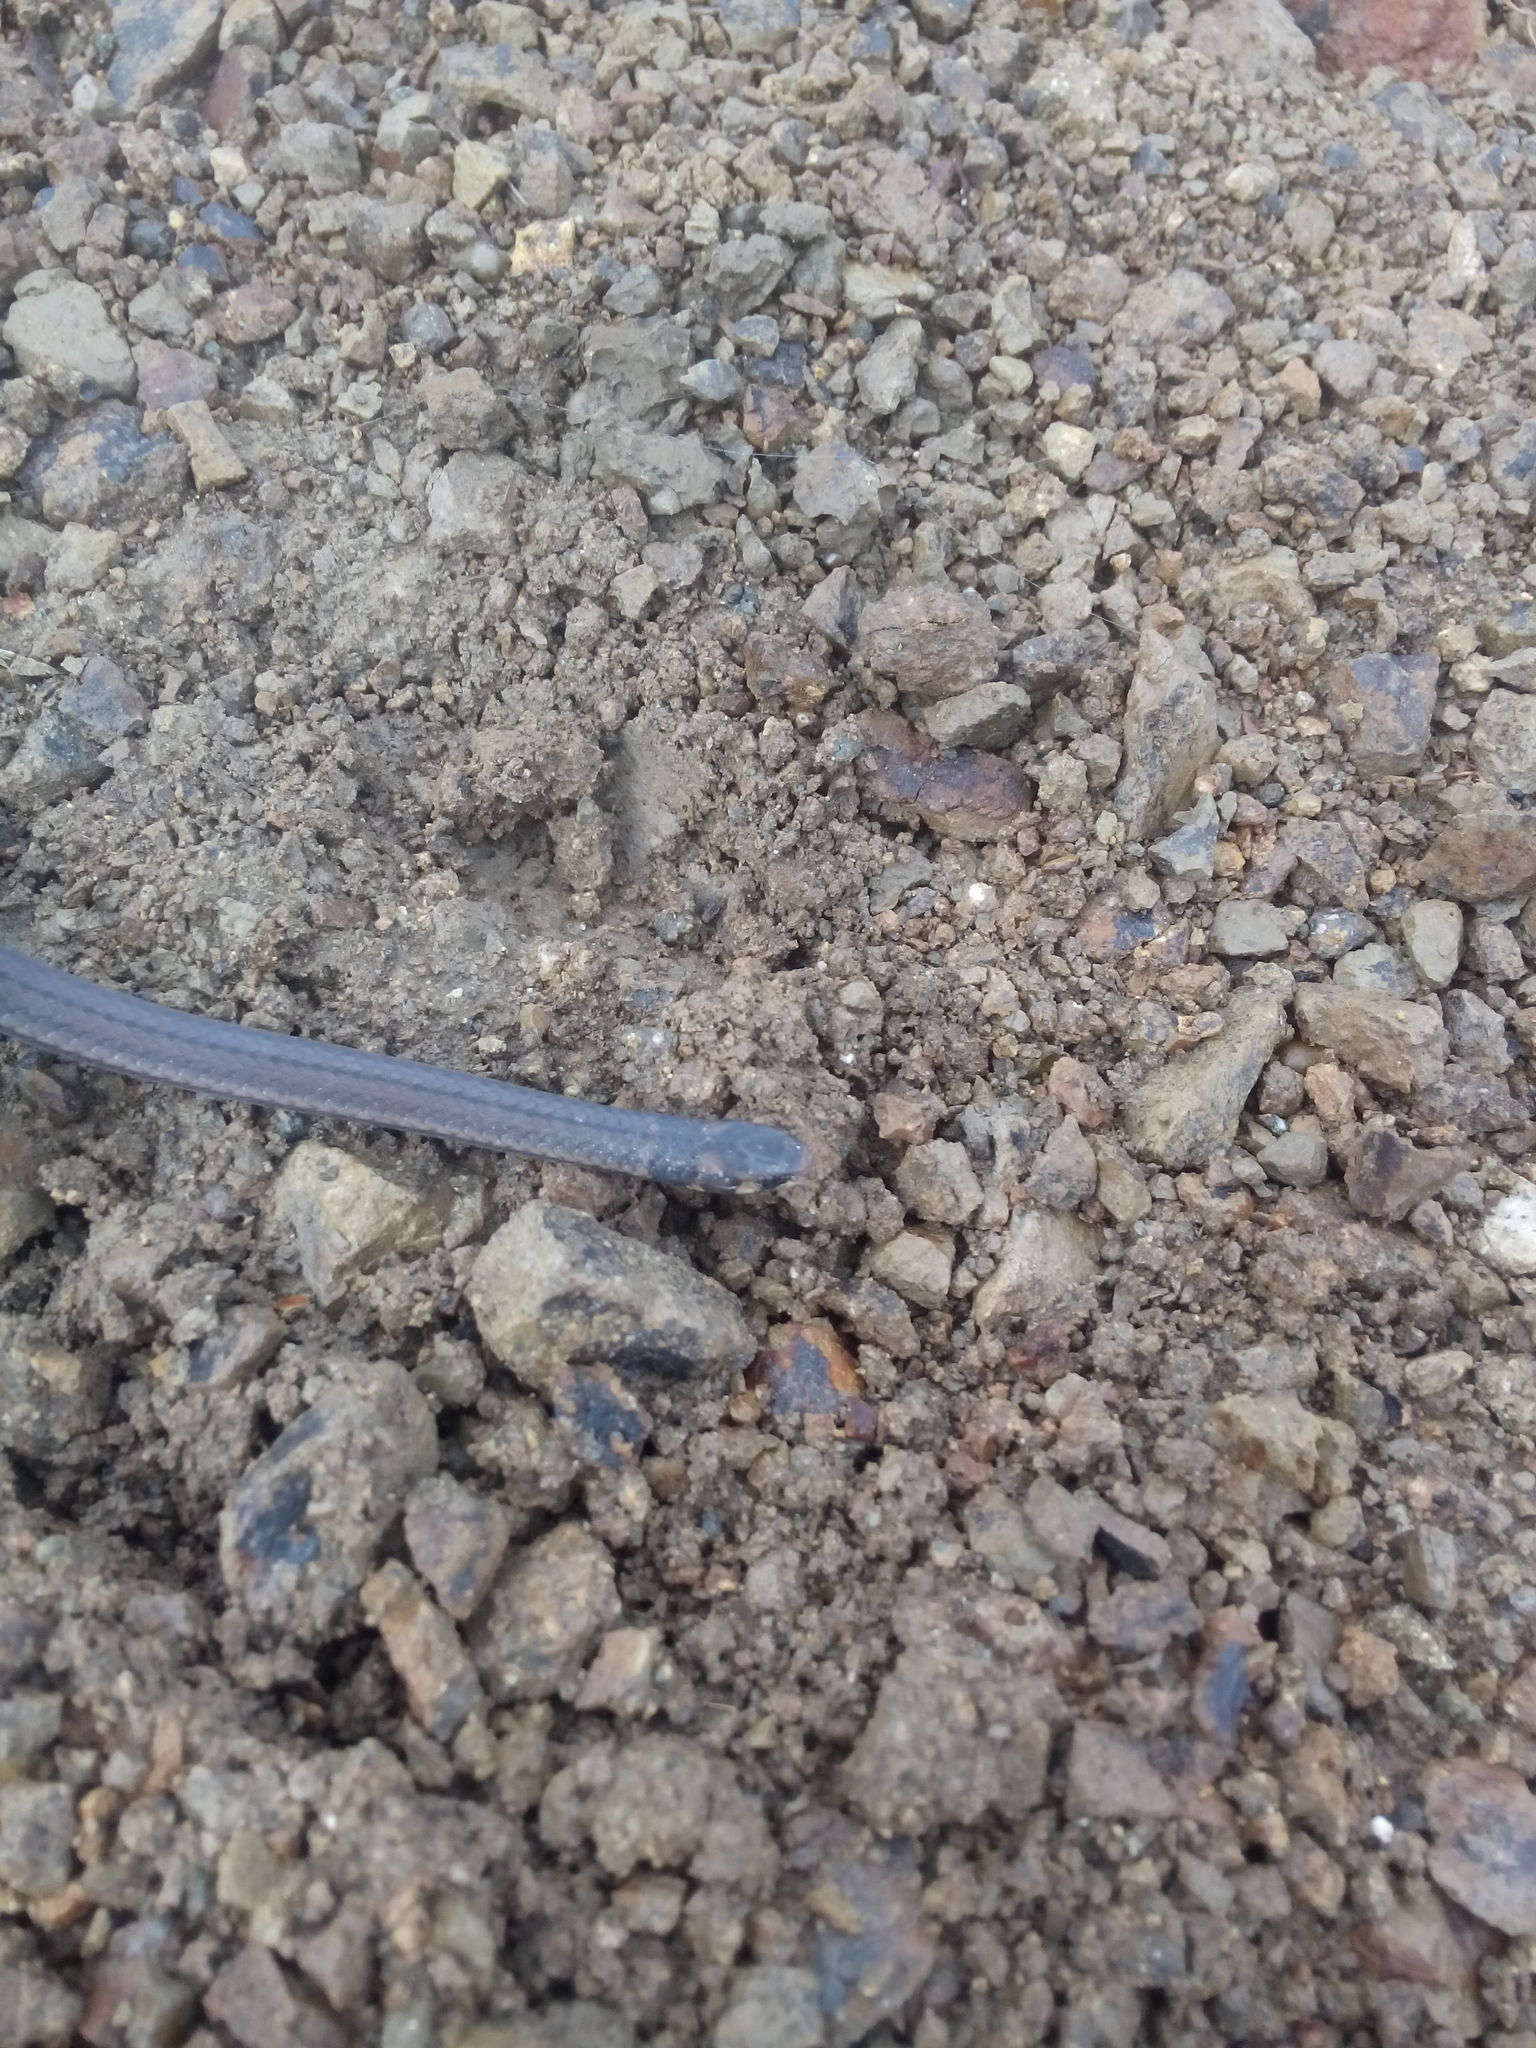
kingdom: Animalia
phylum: Chordata
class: Squamata
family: Colubridae
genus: Tantilla
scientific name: Tantilla melanocephala
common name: Black-headed snake
